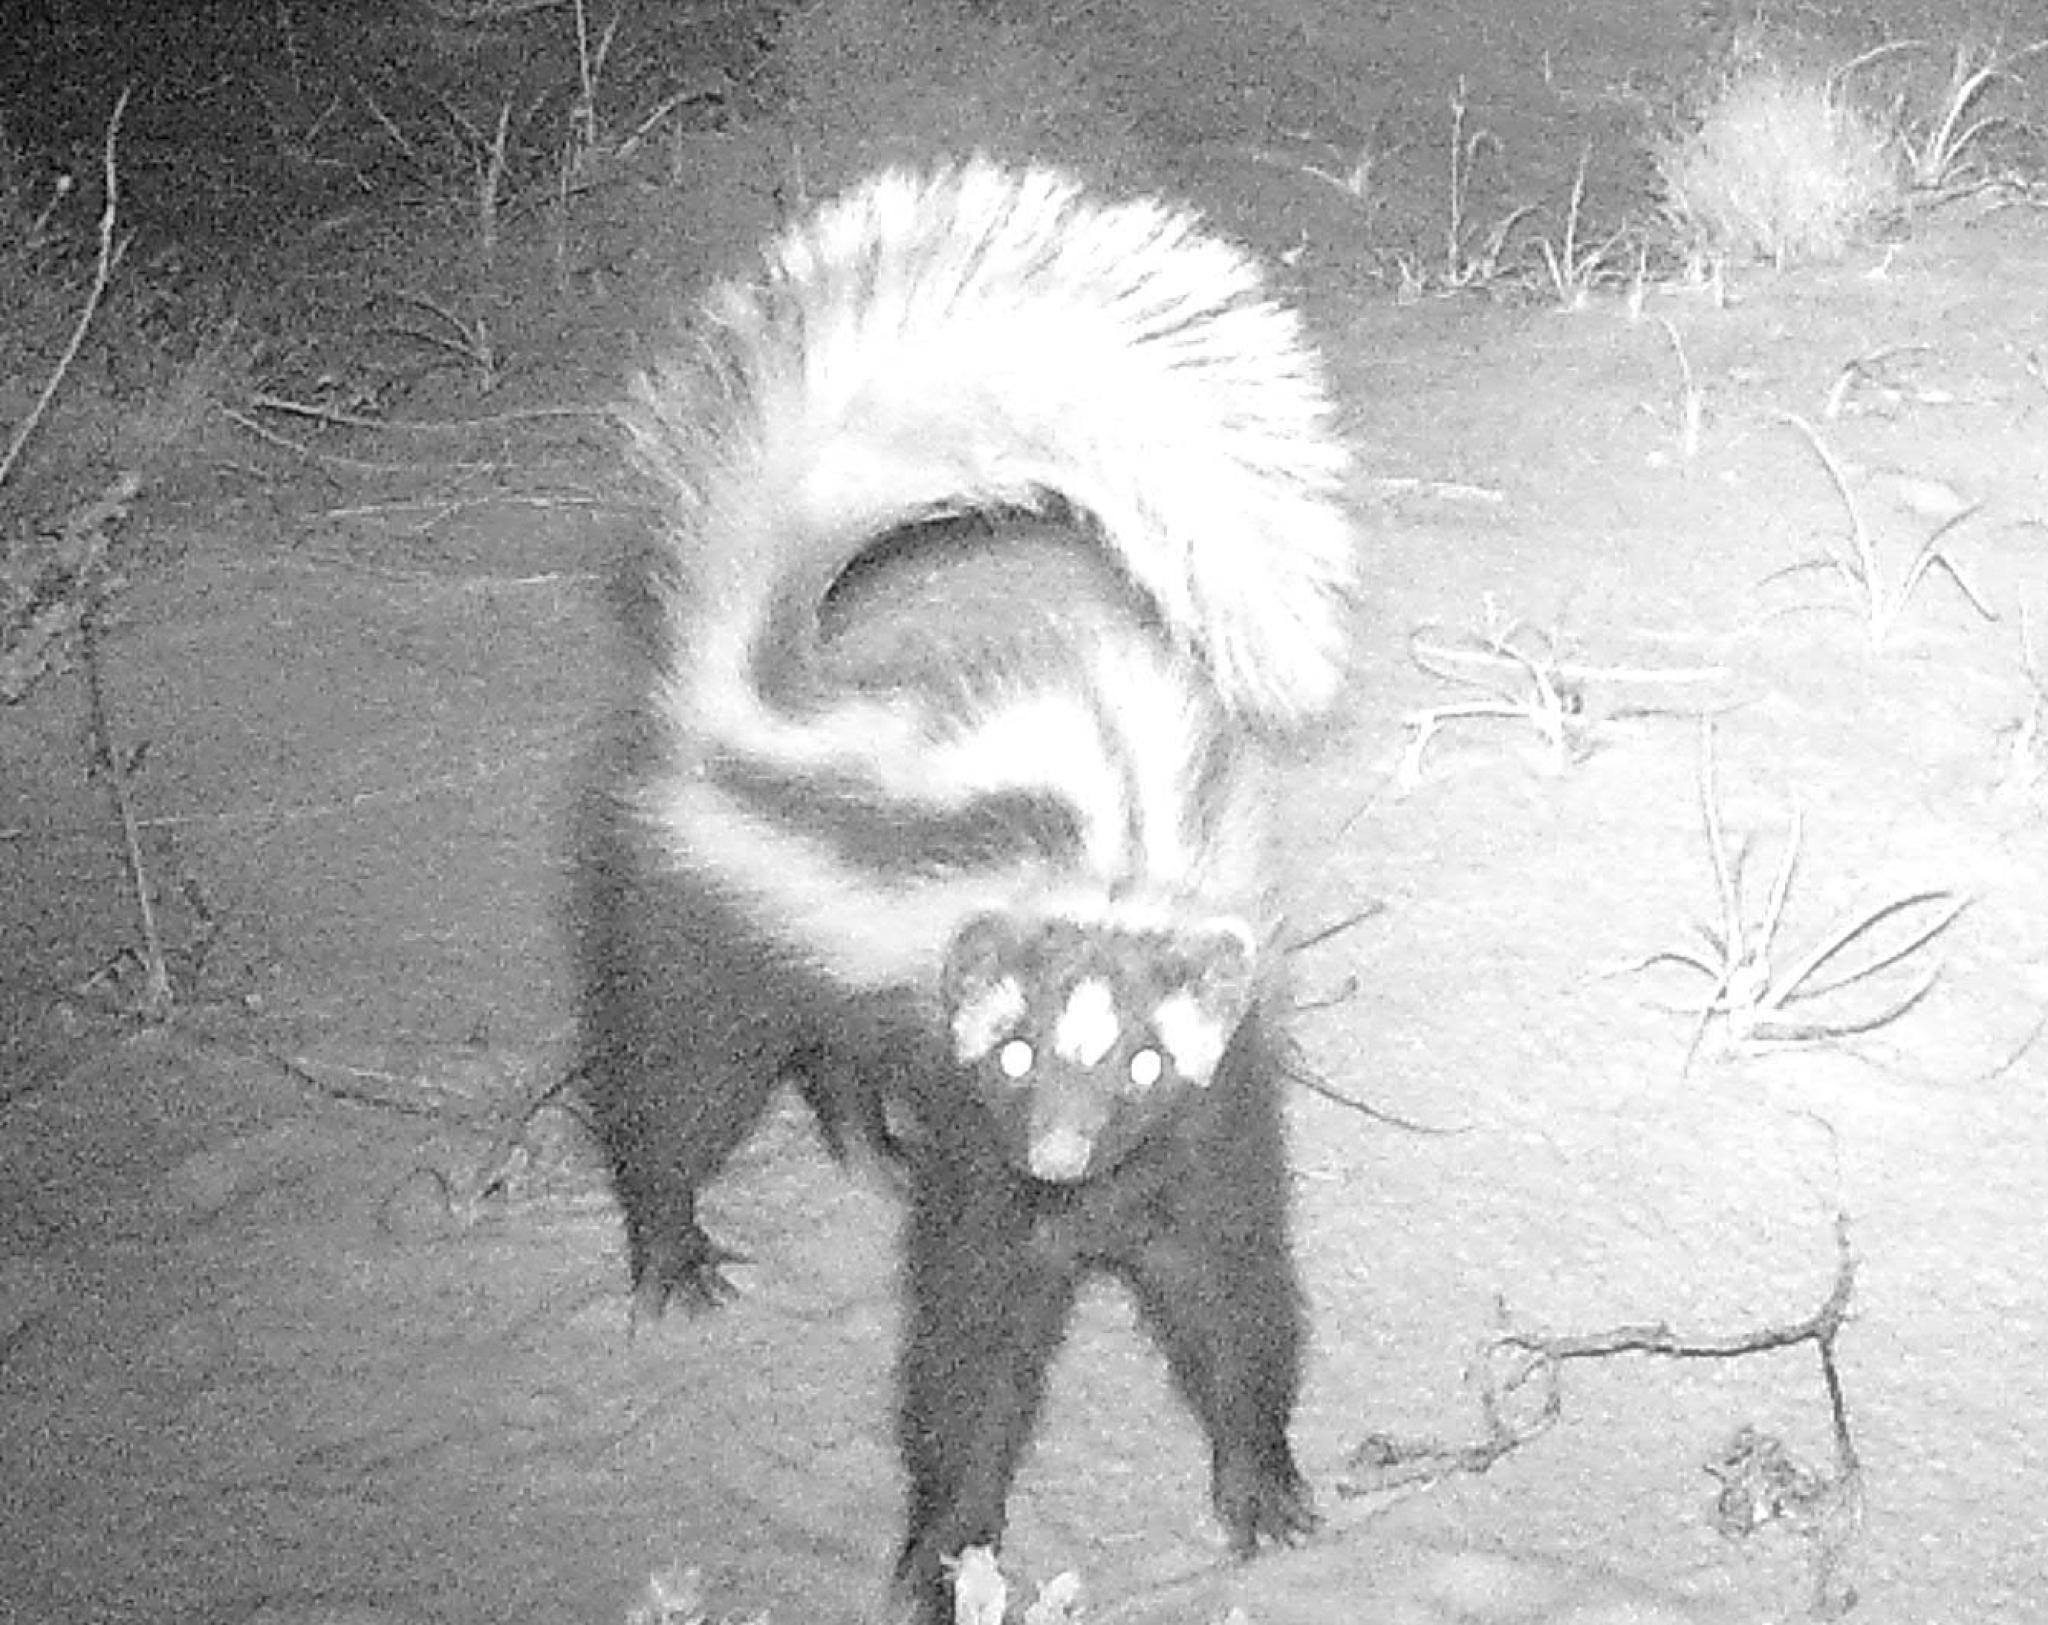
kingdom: Animalia
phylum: Chordata
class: Mammalia
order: Carnivora
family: Mustelidae
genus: Ictonyx
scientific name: Ictonyx striatus
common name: Striped polecat
